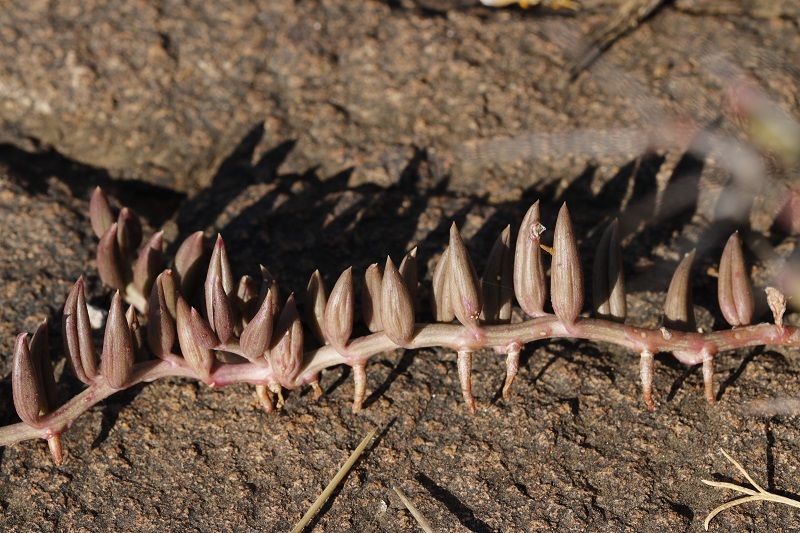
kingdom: Plantae
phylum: Tracheophyta
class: Magnoliopsida
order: Asterales
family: Asteraceae
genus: Curio
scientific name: Curio radicans
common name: Creeping-berry
